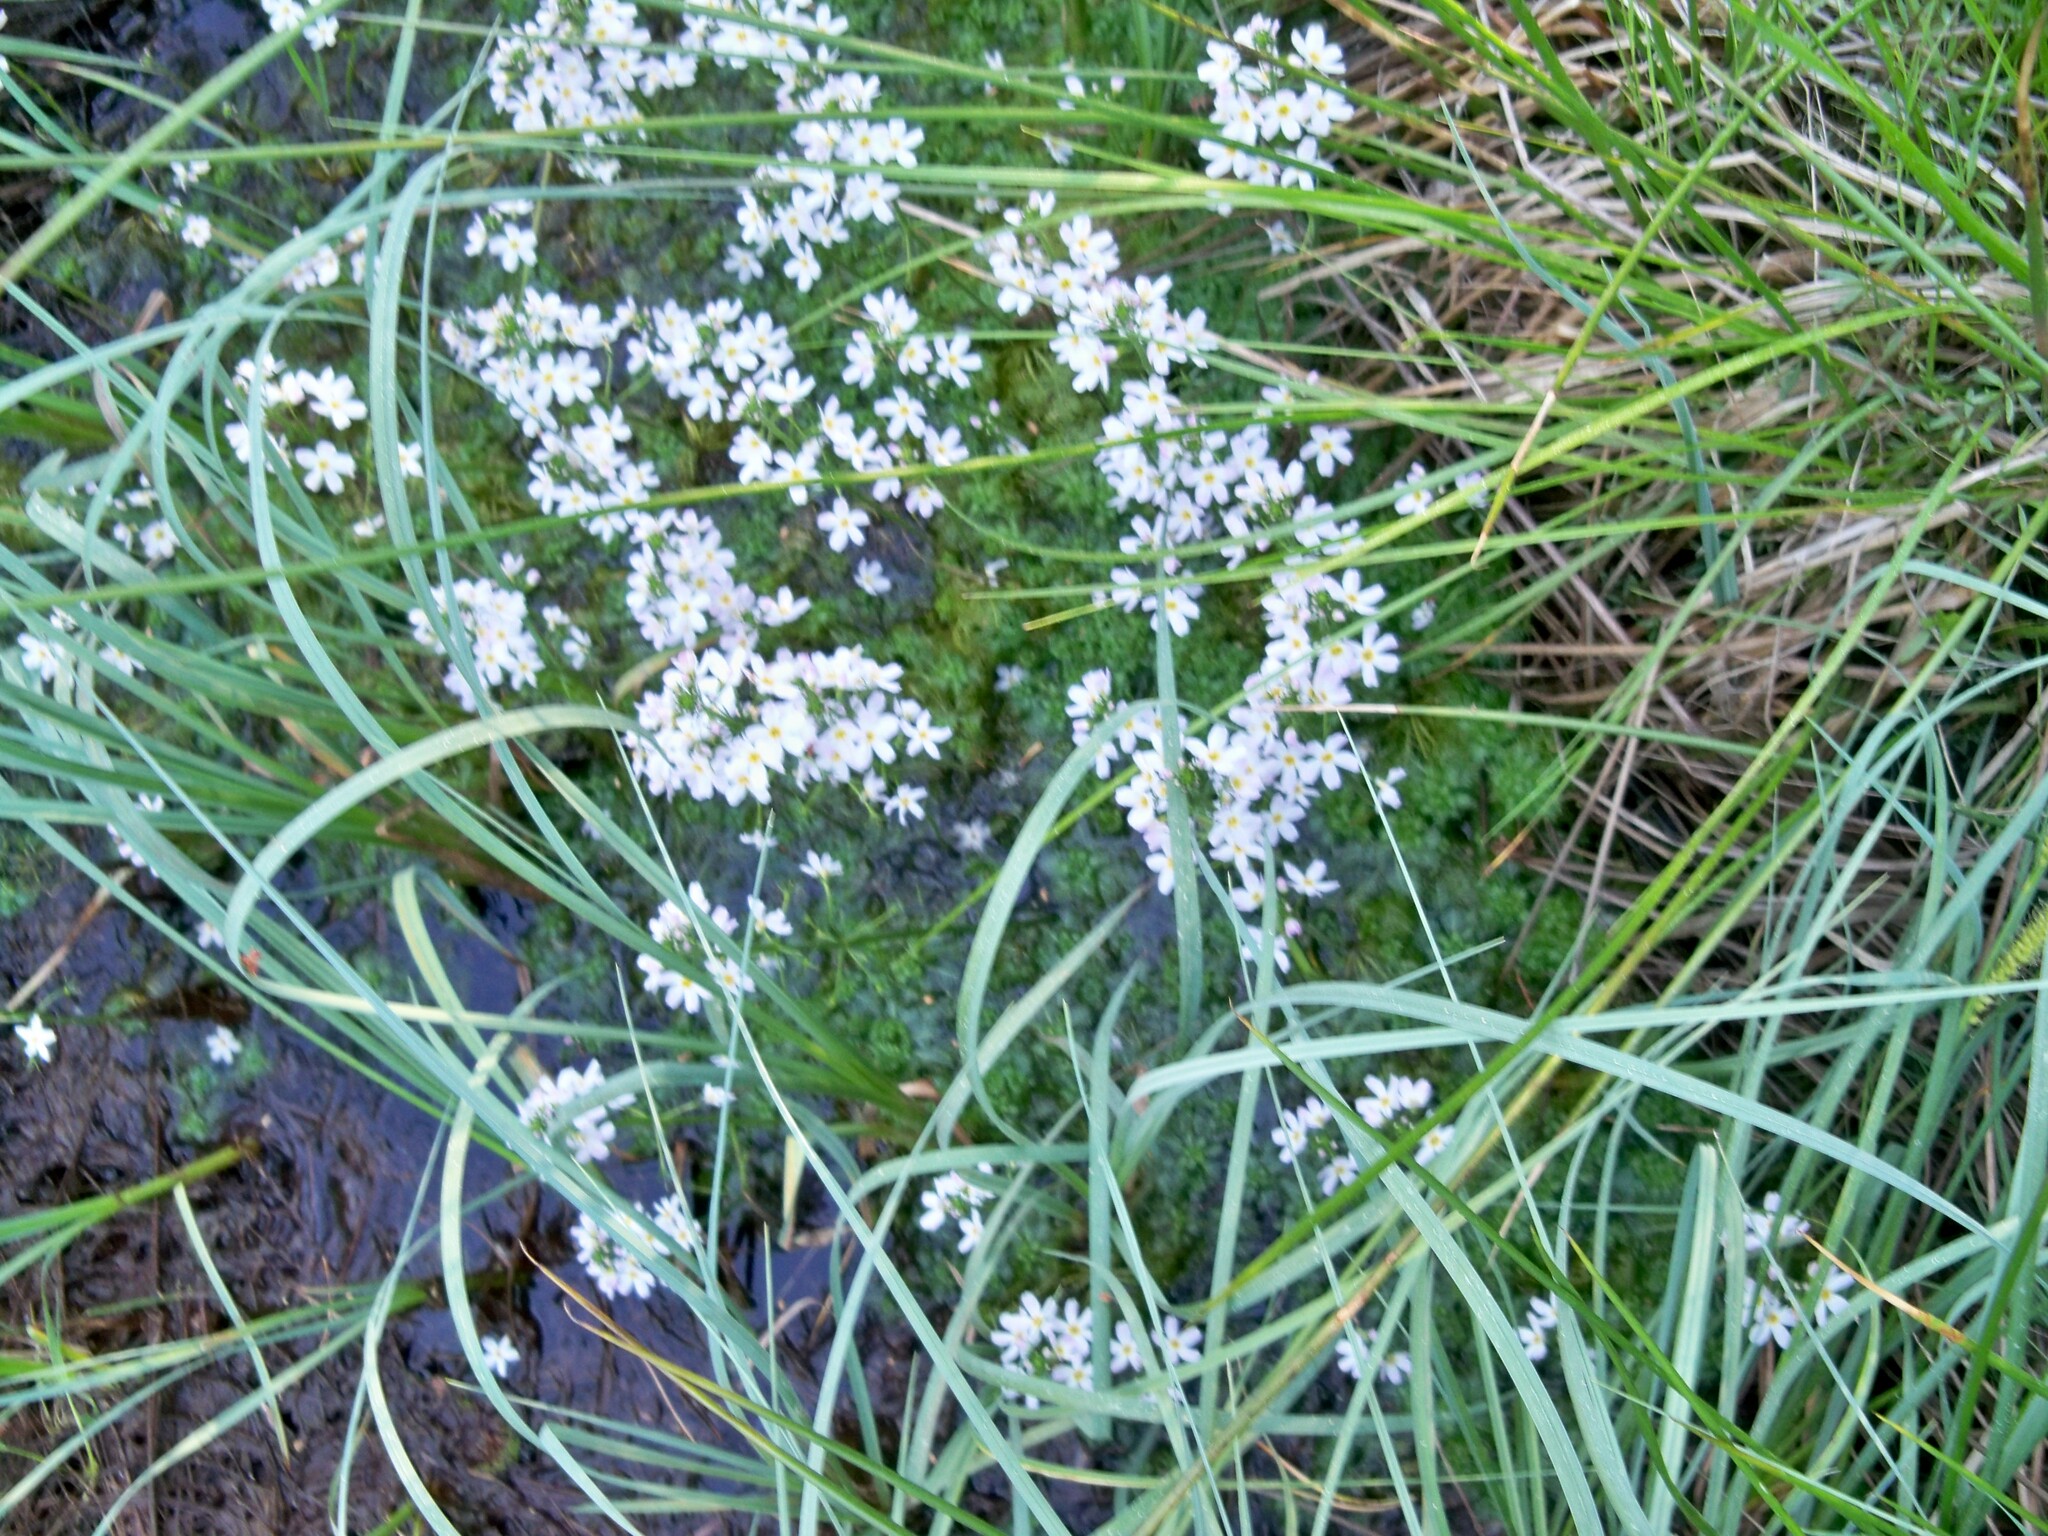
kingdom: Plantae
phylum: Tracheophyta
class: Magnoliopsida
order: Ericales
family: Primulaceae
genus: Hottonia
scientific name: Hottonia palustris
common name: Water-violet
